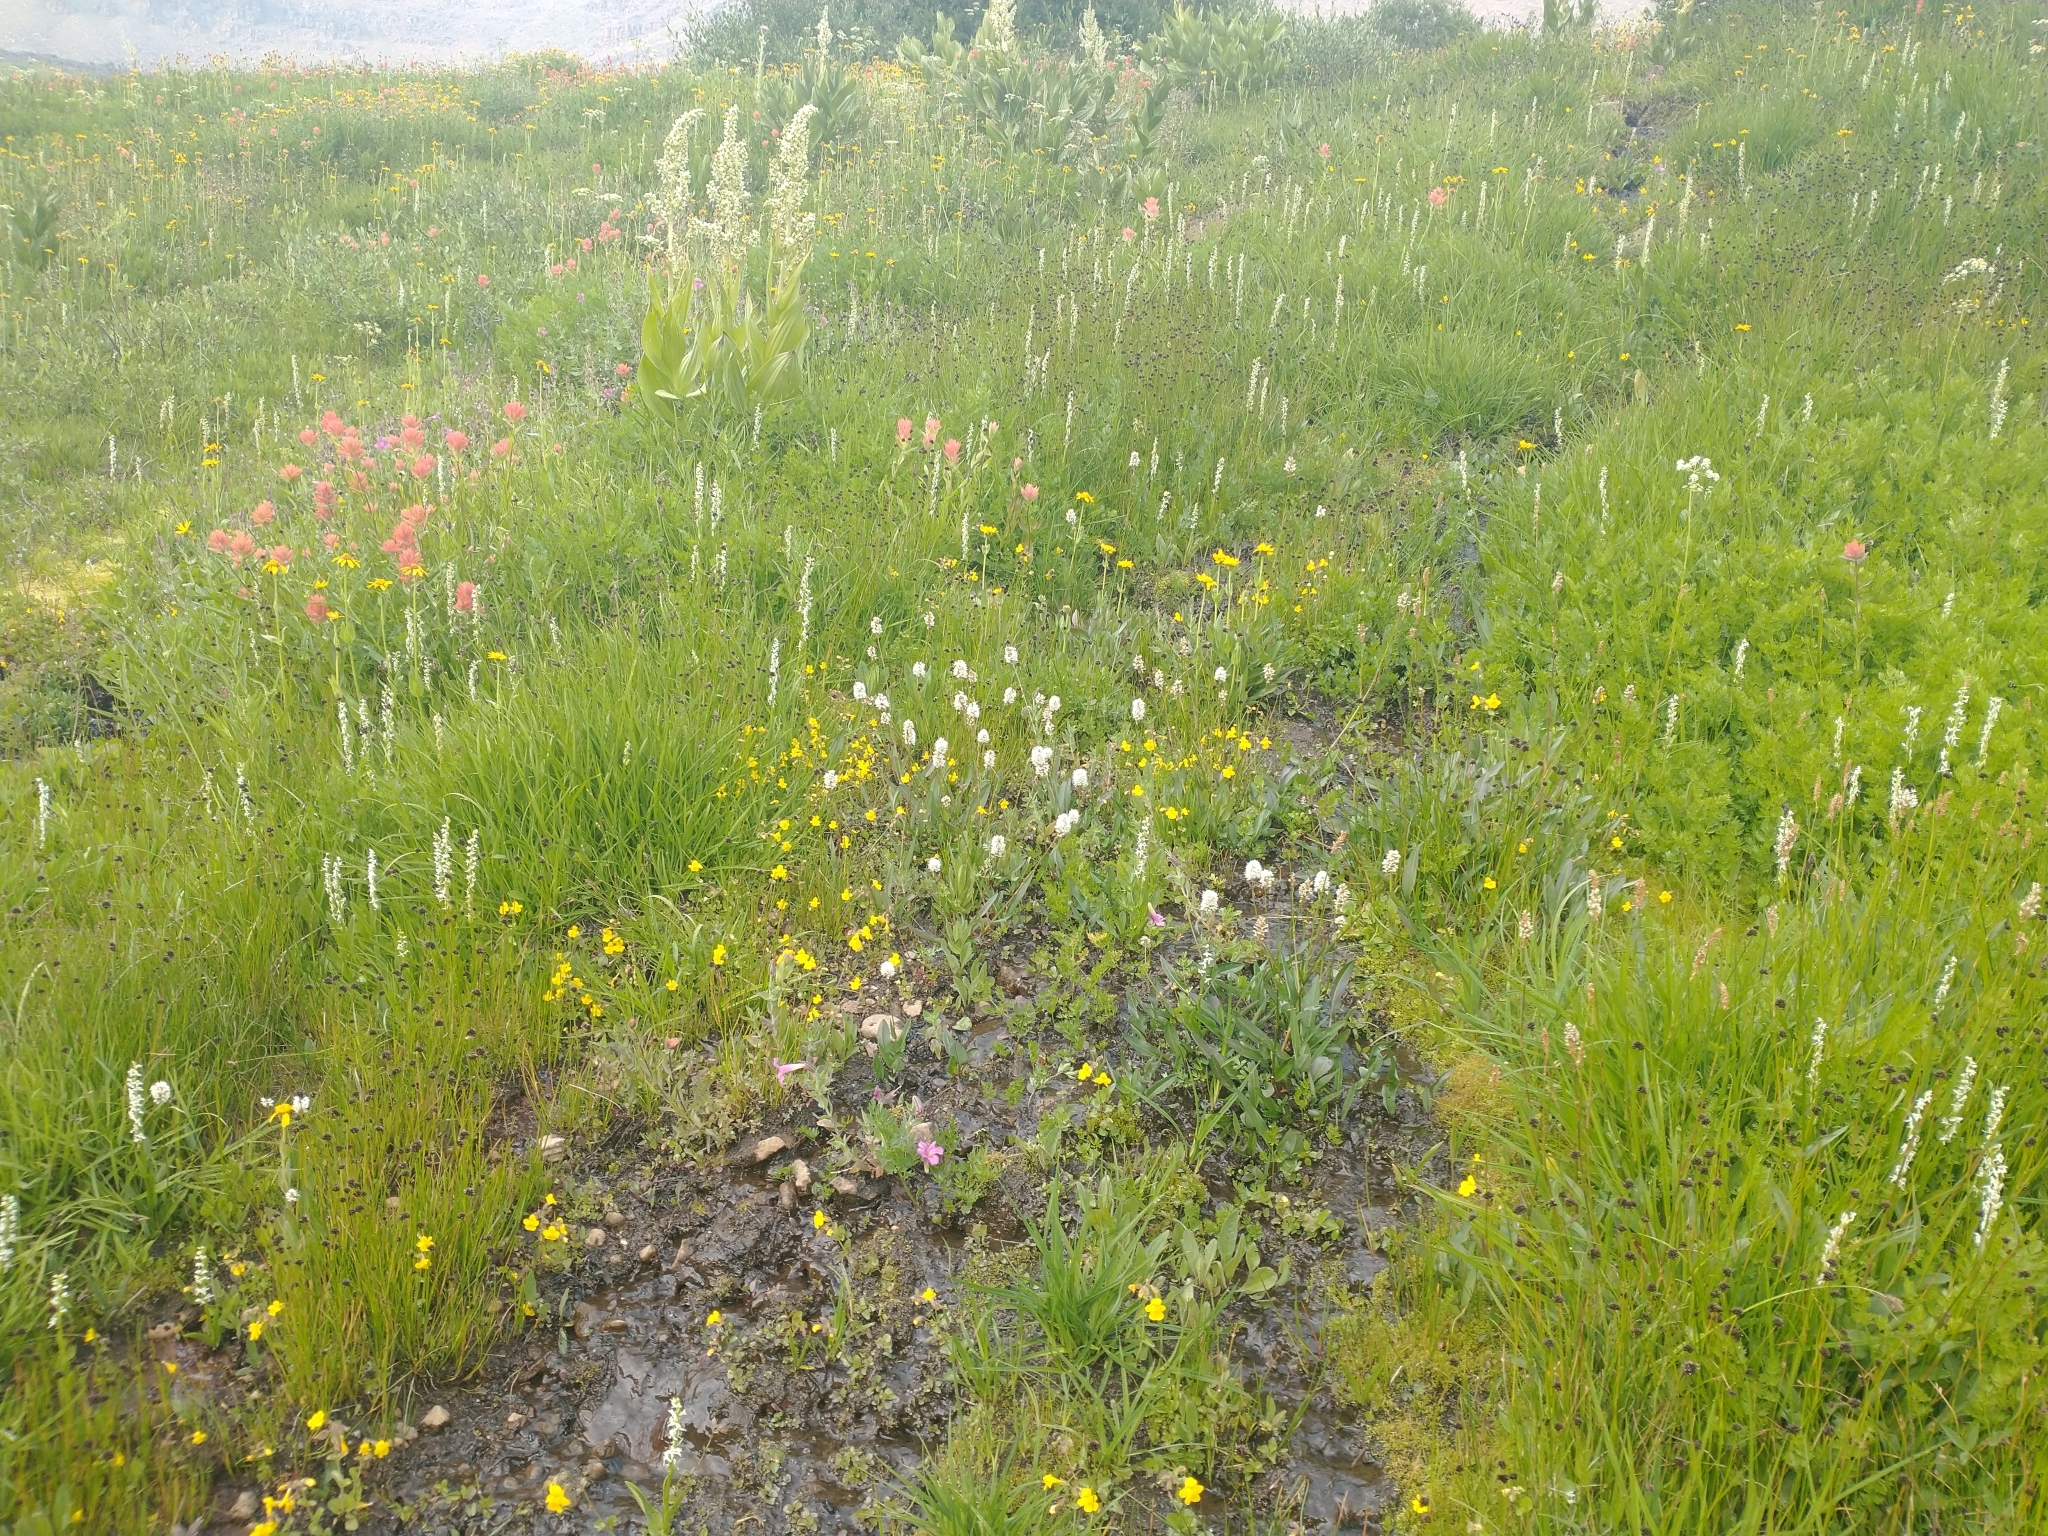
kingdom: Plantae
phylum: Tracheophyta
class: Magnoliopsida
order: Caryophyllales
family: Polygonaceae
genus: Bistorta
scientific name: Bistorta bistortoides
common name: American bistort
